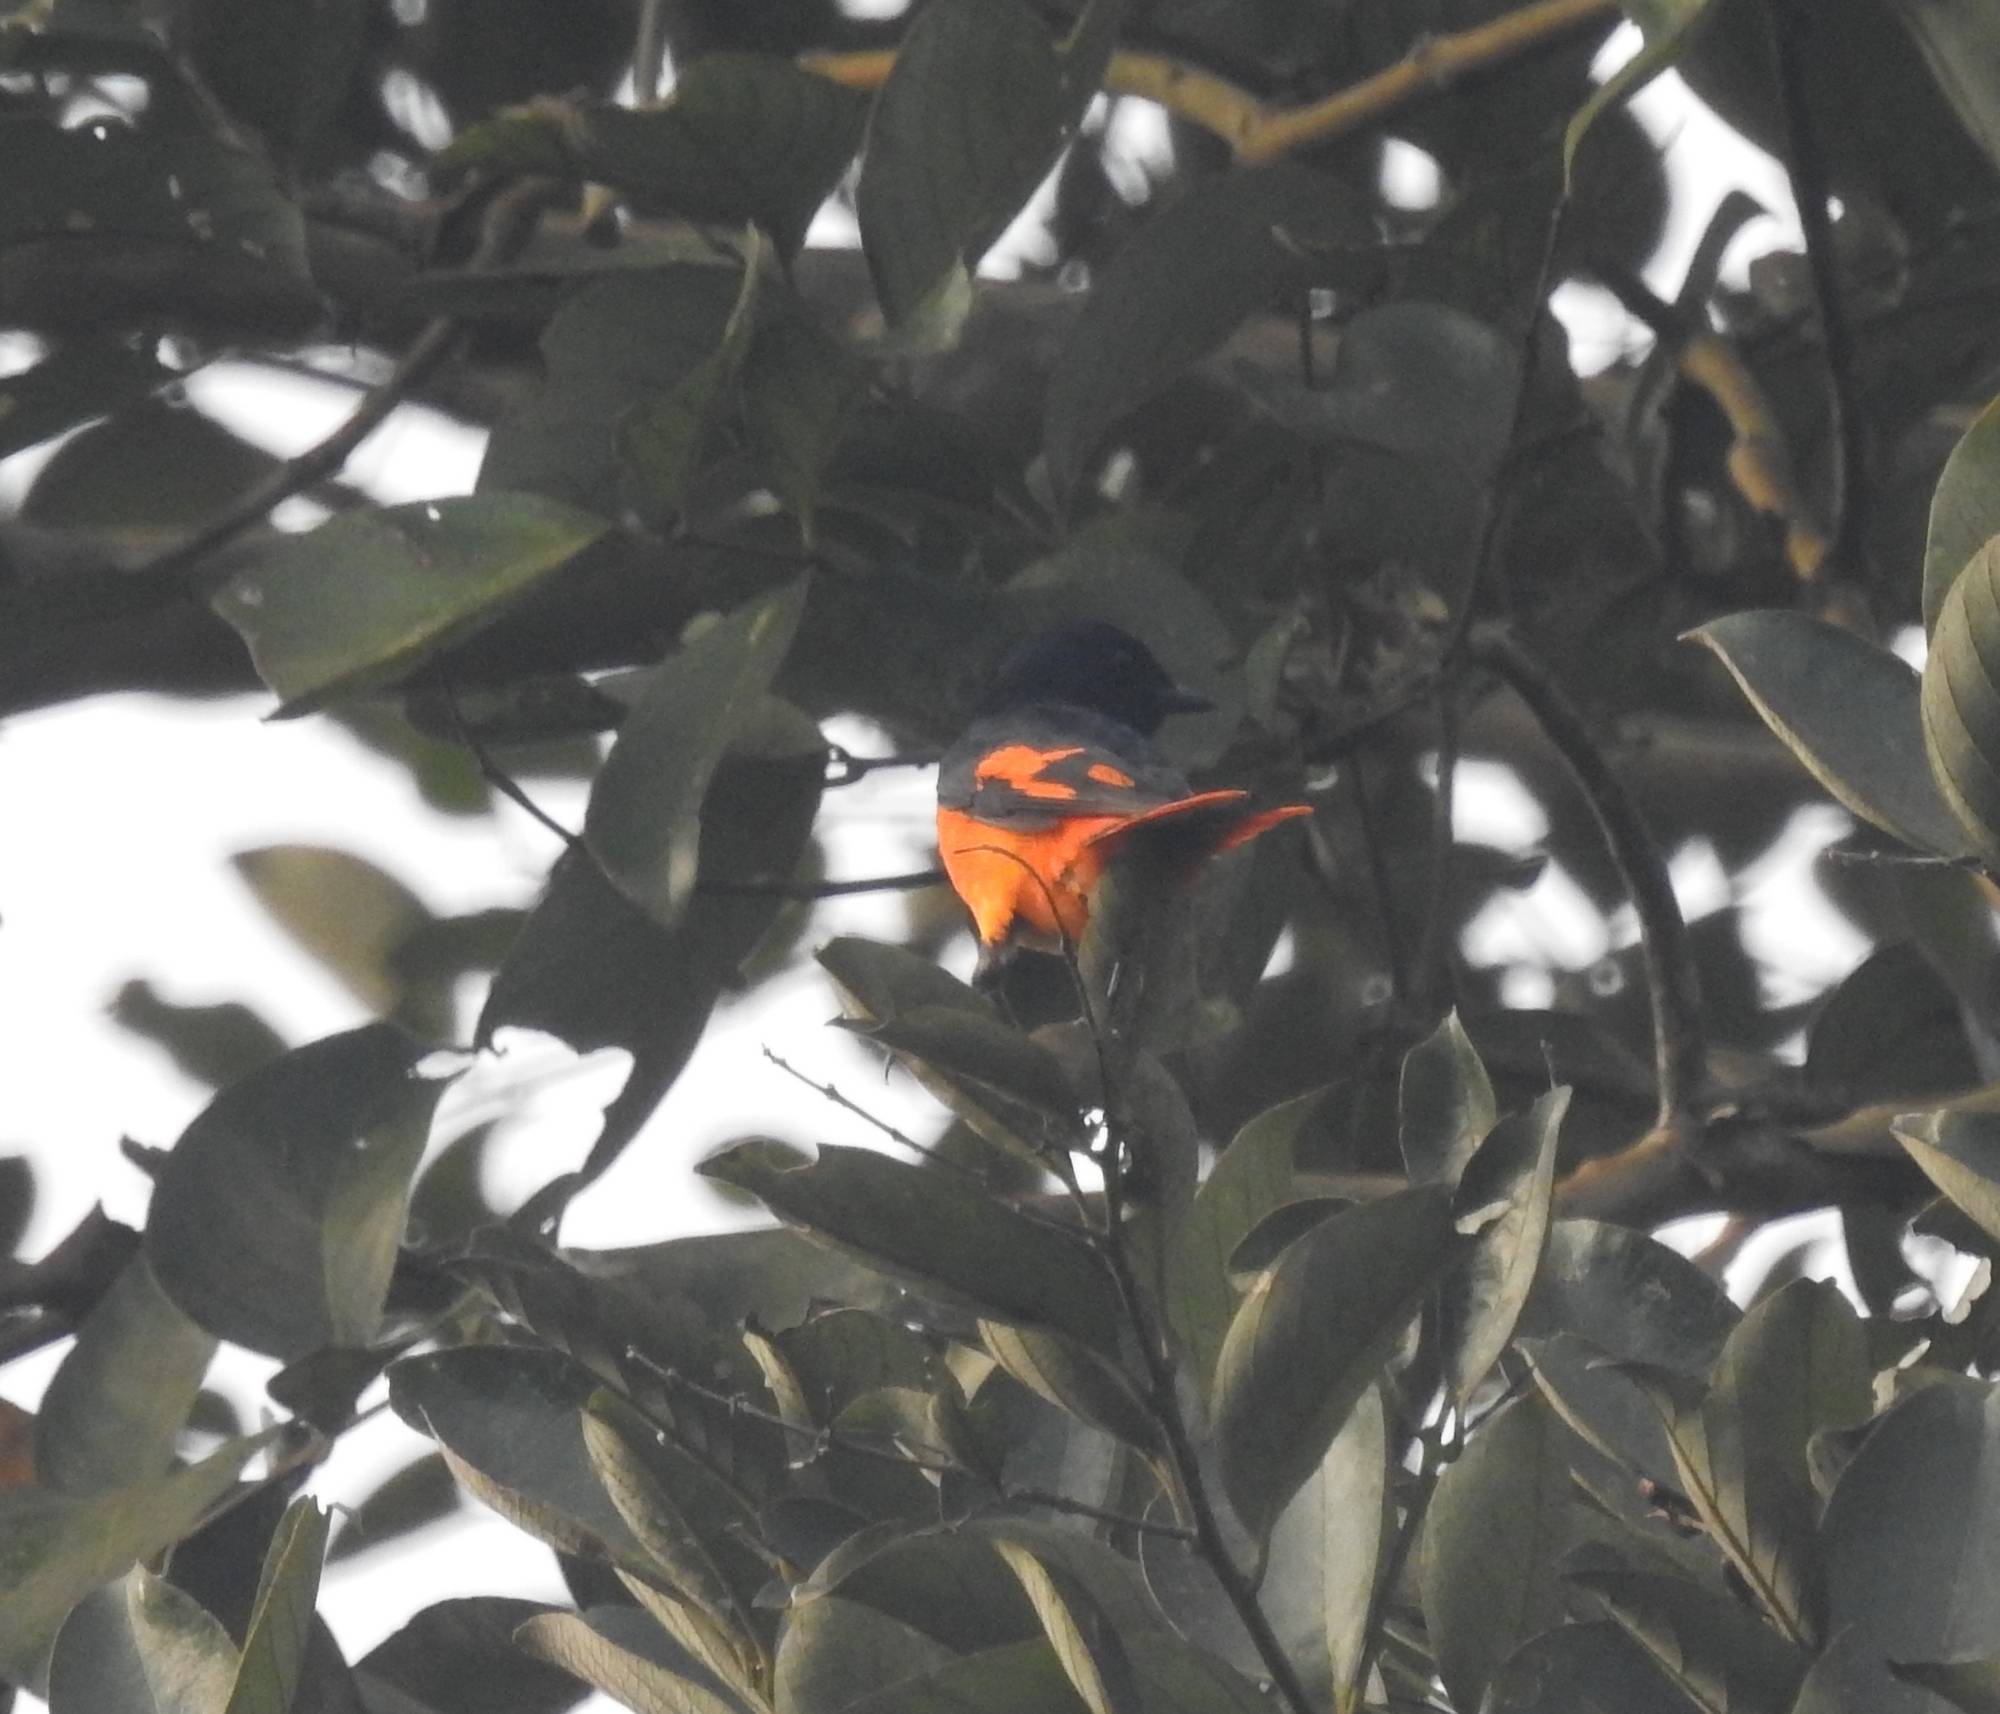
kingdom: Animalia
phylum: Chordata
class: Aves
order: Passeriformes
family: Campephagidae
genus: Pericrocotus
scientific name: Pericrocotus flammeus
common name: Orange minivet
